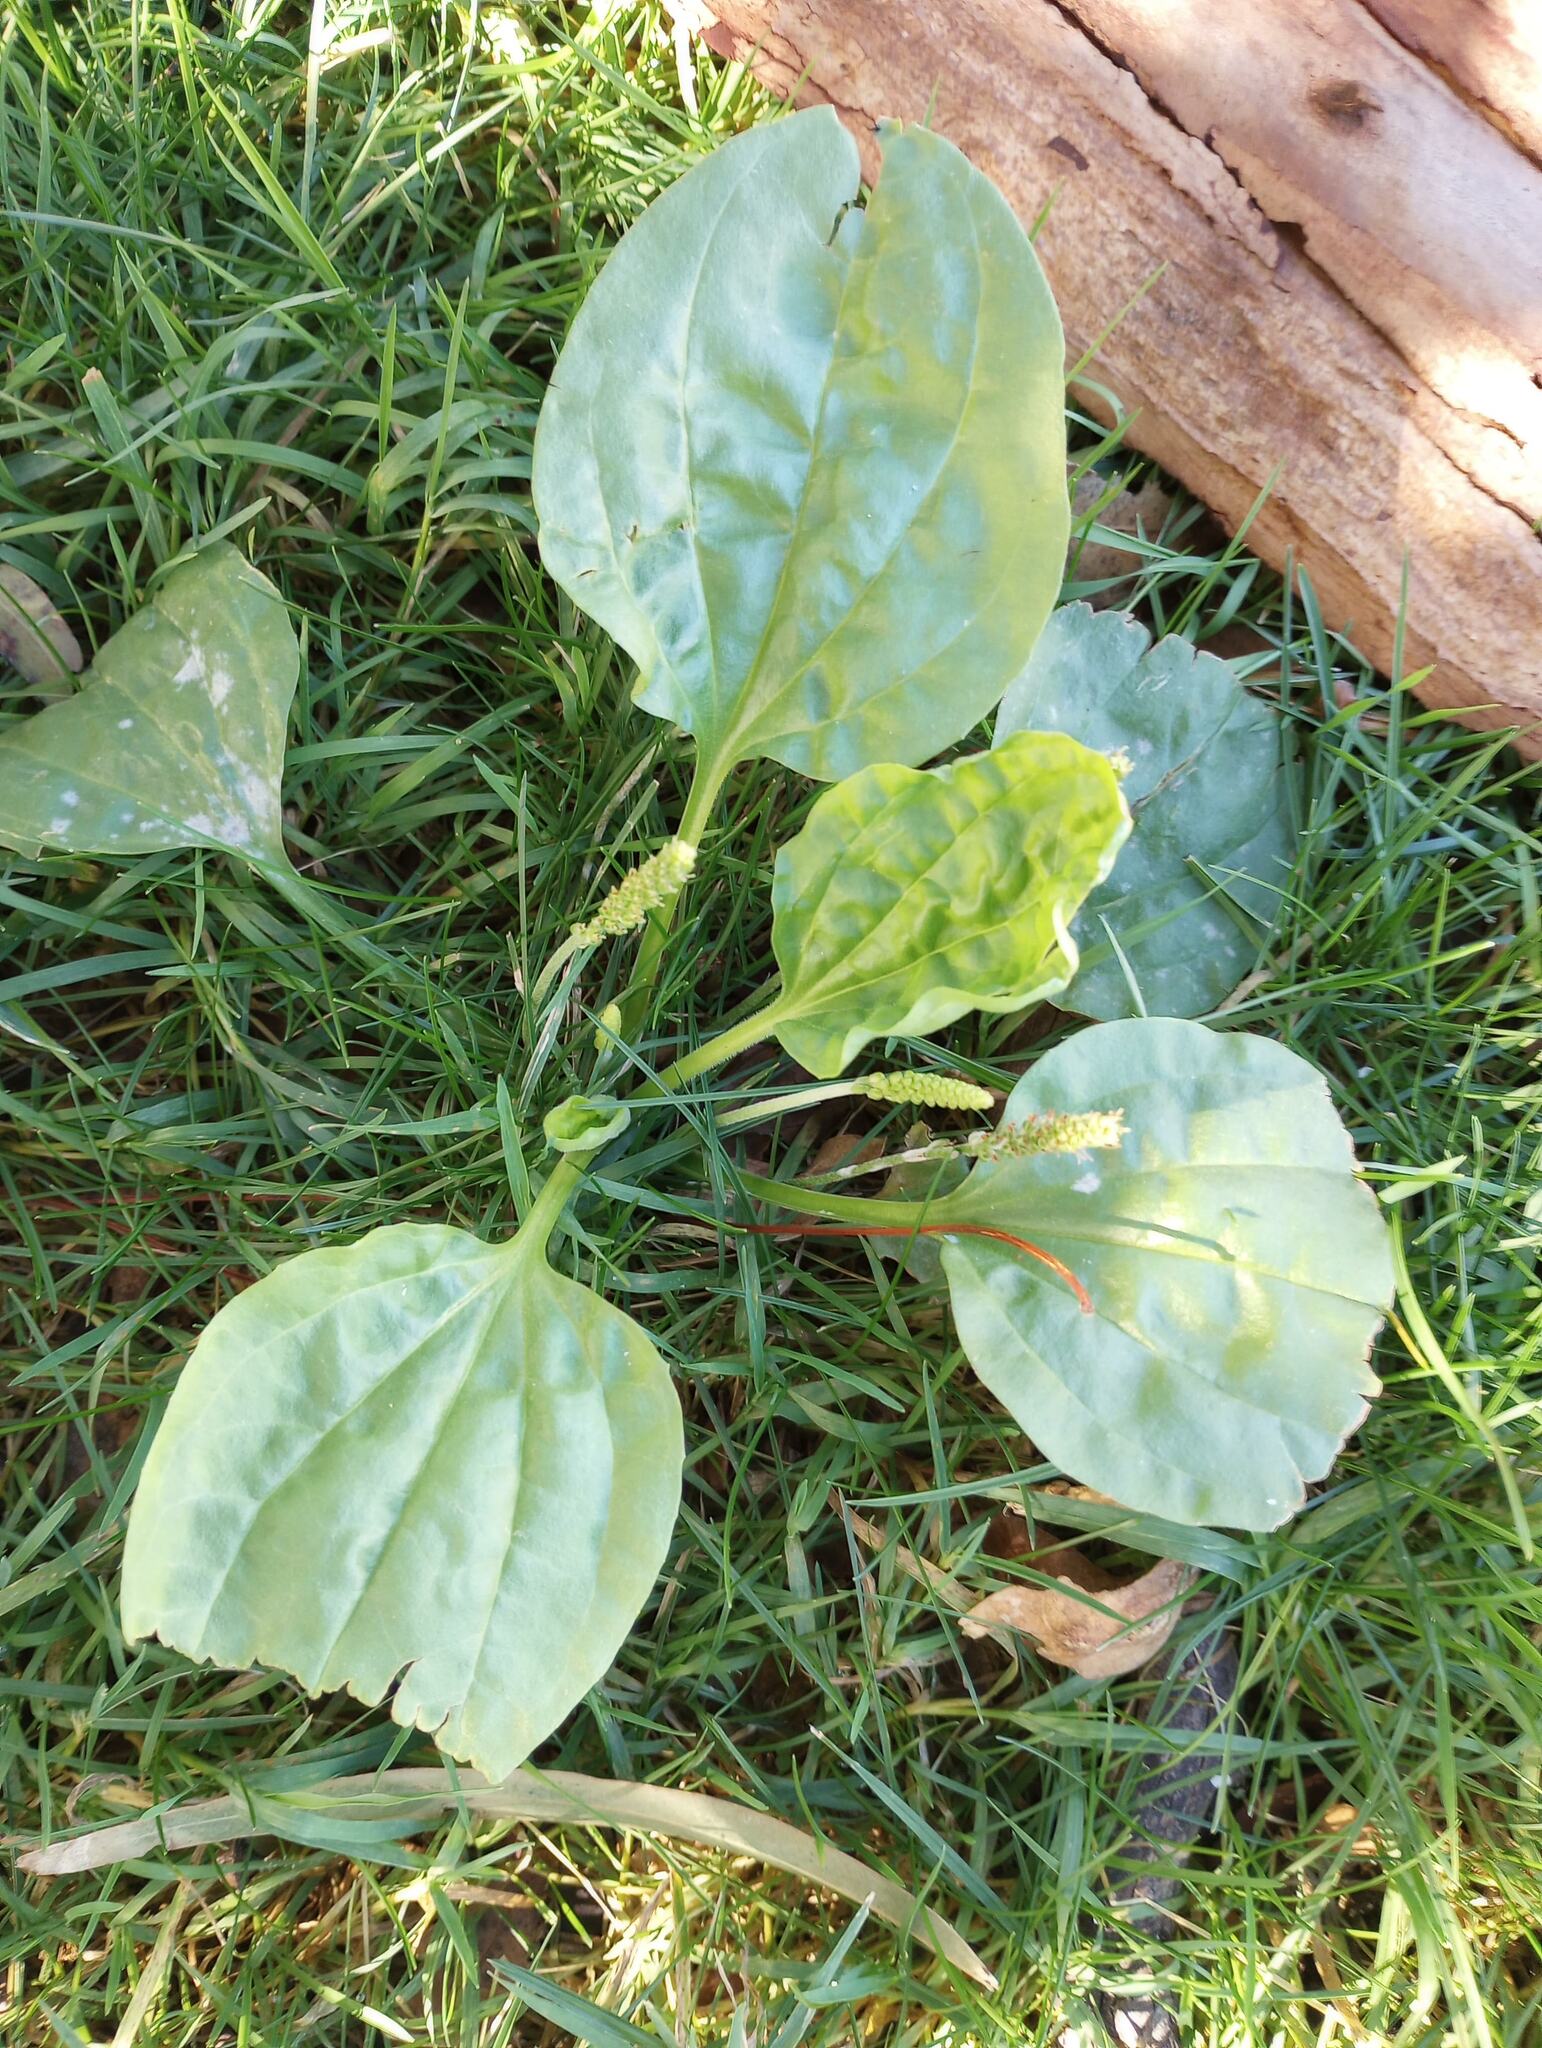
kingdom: Plantae
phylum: Tracheophyta
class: Magnoliopsida
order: Lamiales
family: Plantaginaceae
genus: Plantago
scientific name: Plantago major
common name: Common plantain
